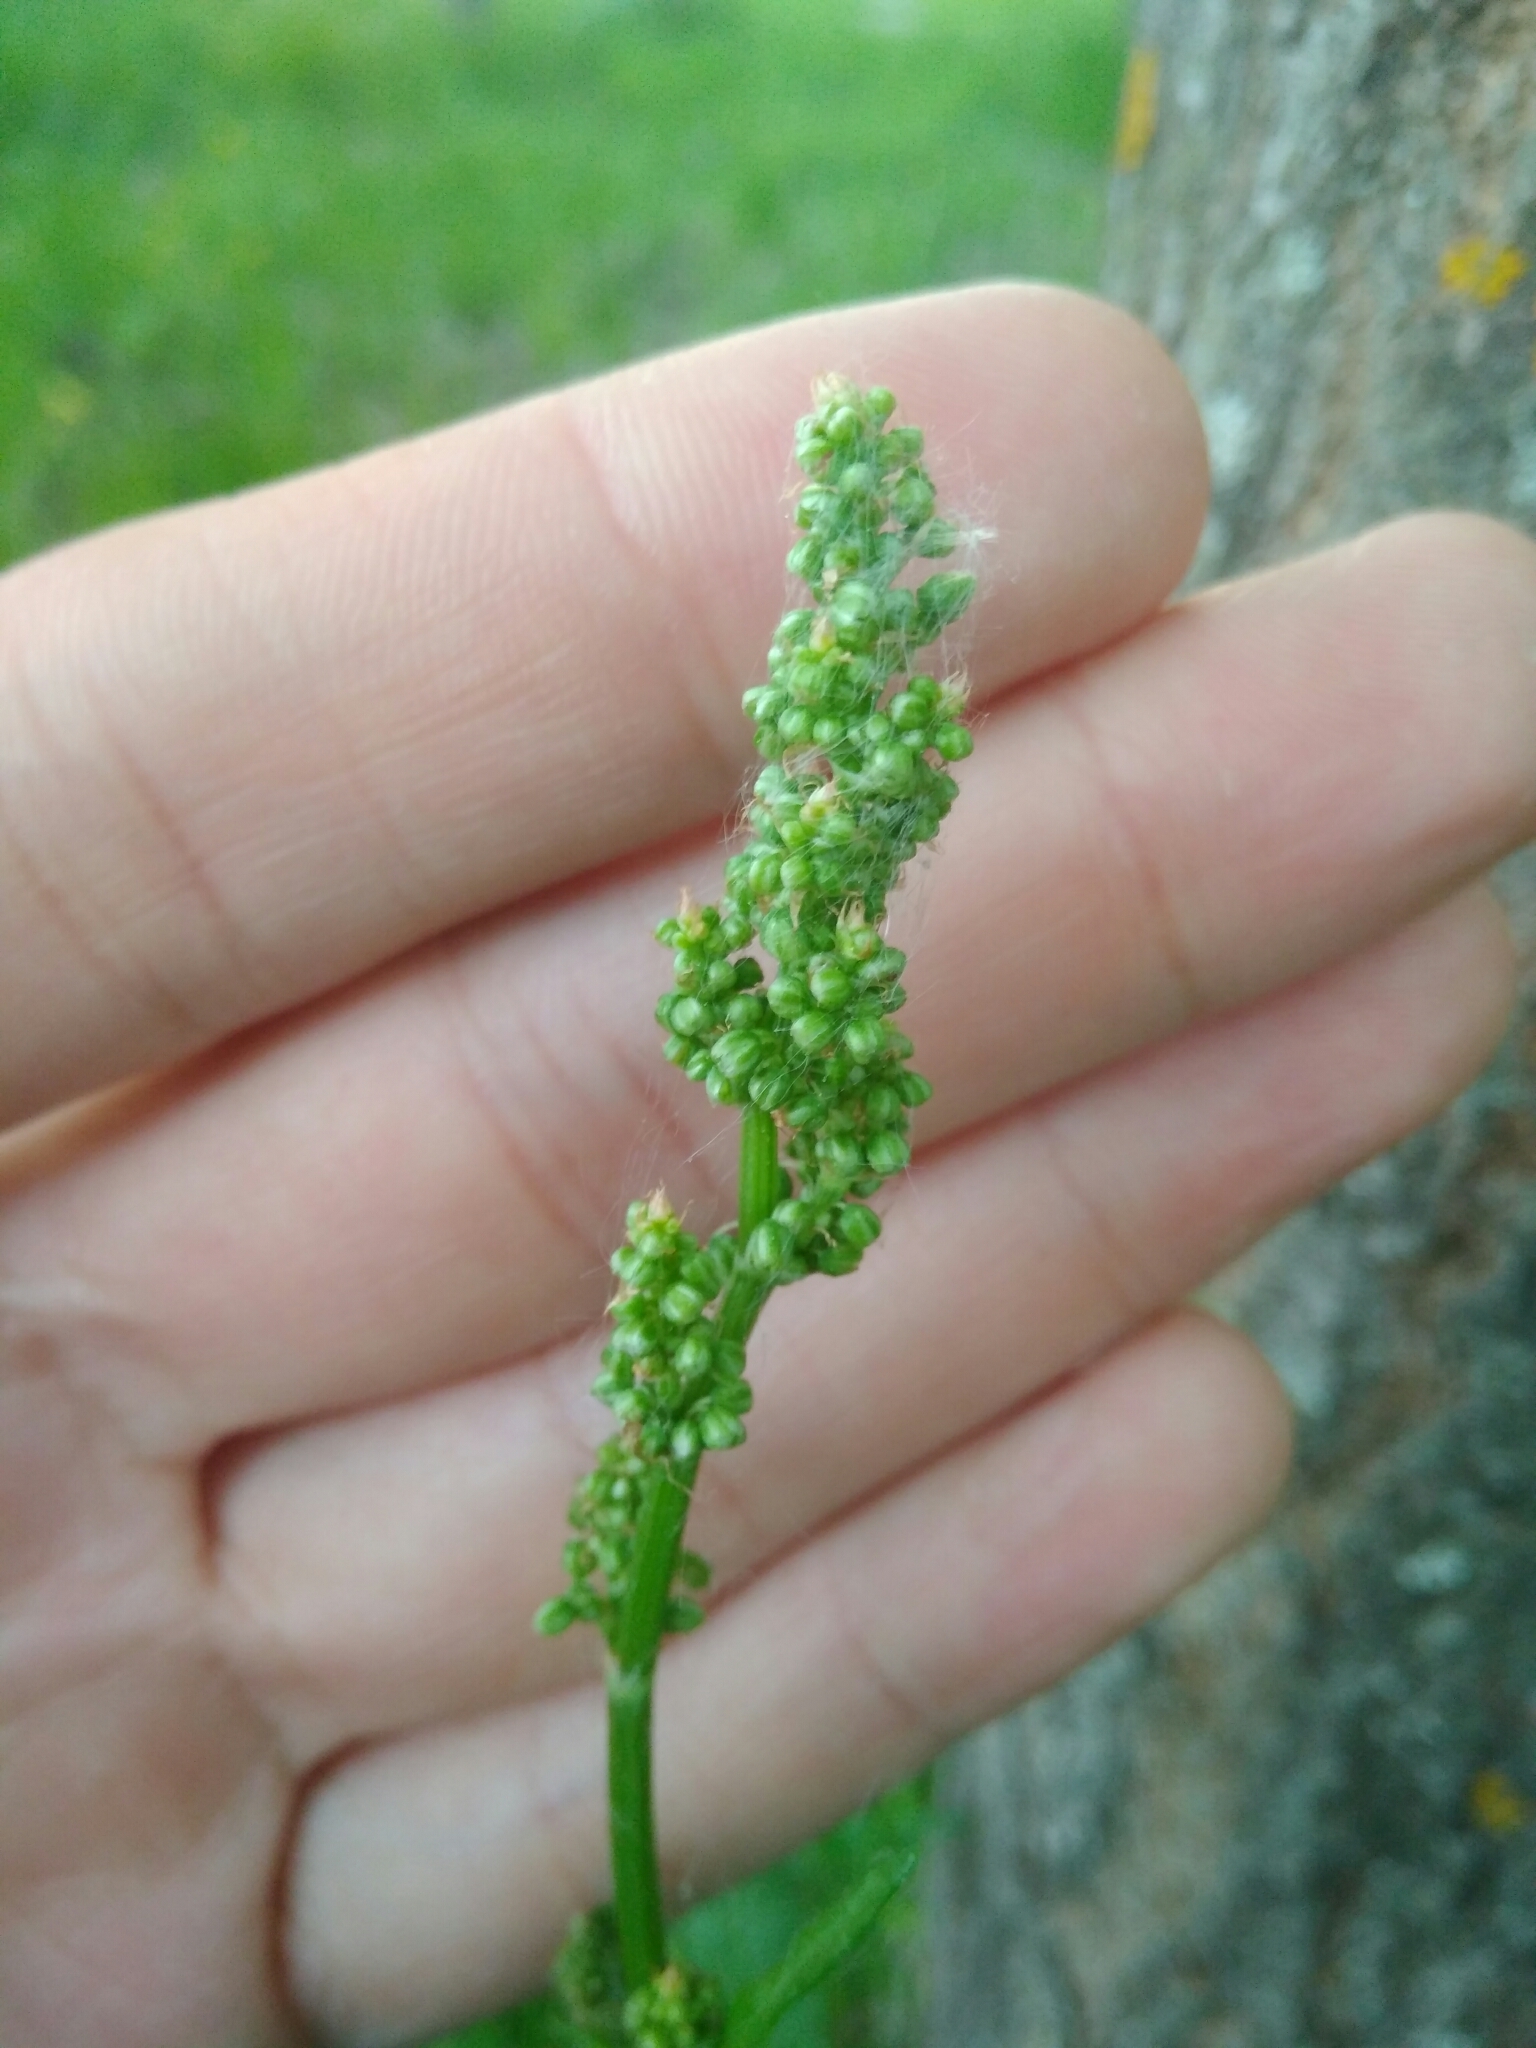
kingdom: Plantae
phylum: Tracheophyta
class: Magnoliopsida
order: Caryophyllales
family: Polygonaceae
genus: Rumex
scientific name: Rumex acetosa
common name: Garden sorrel
